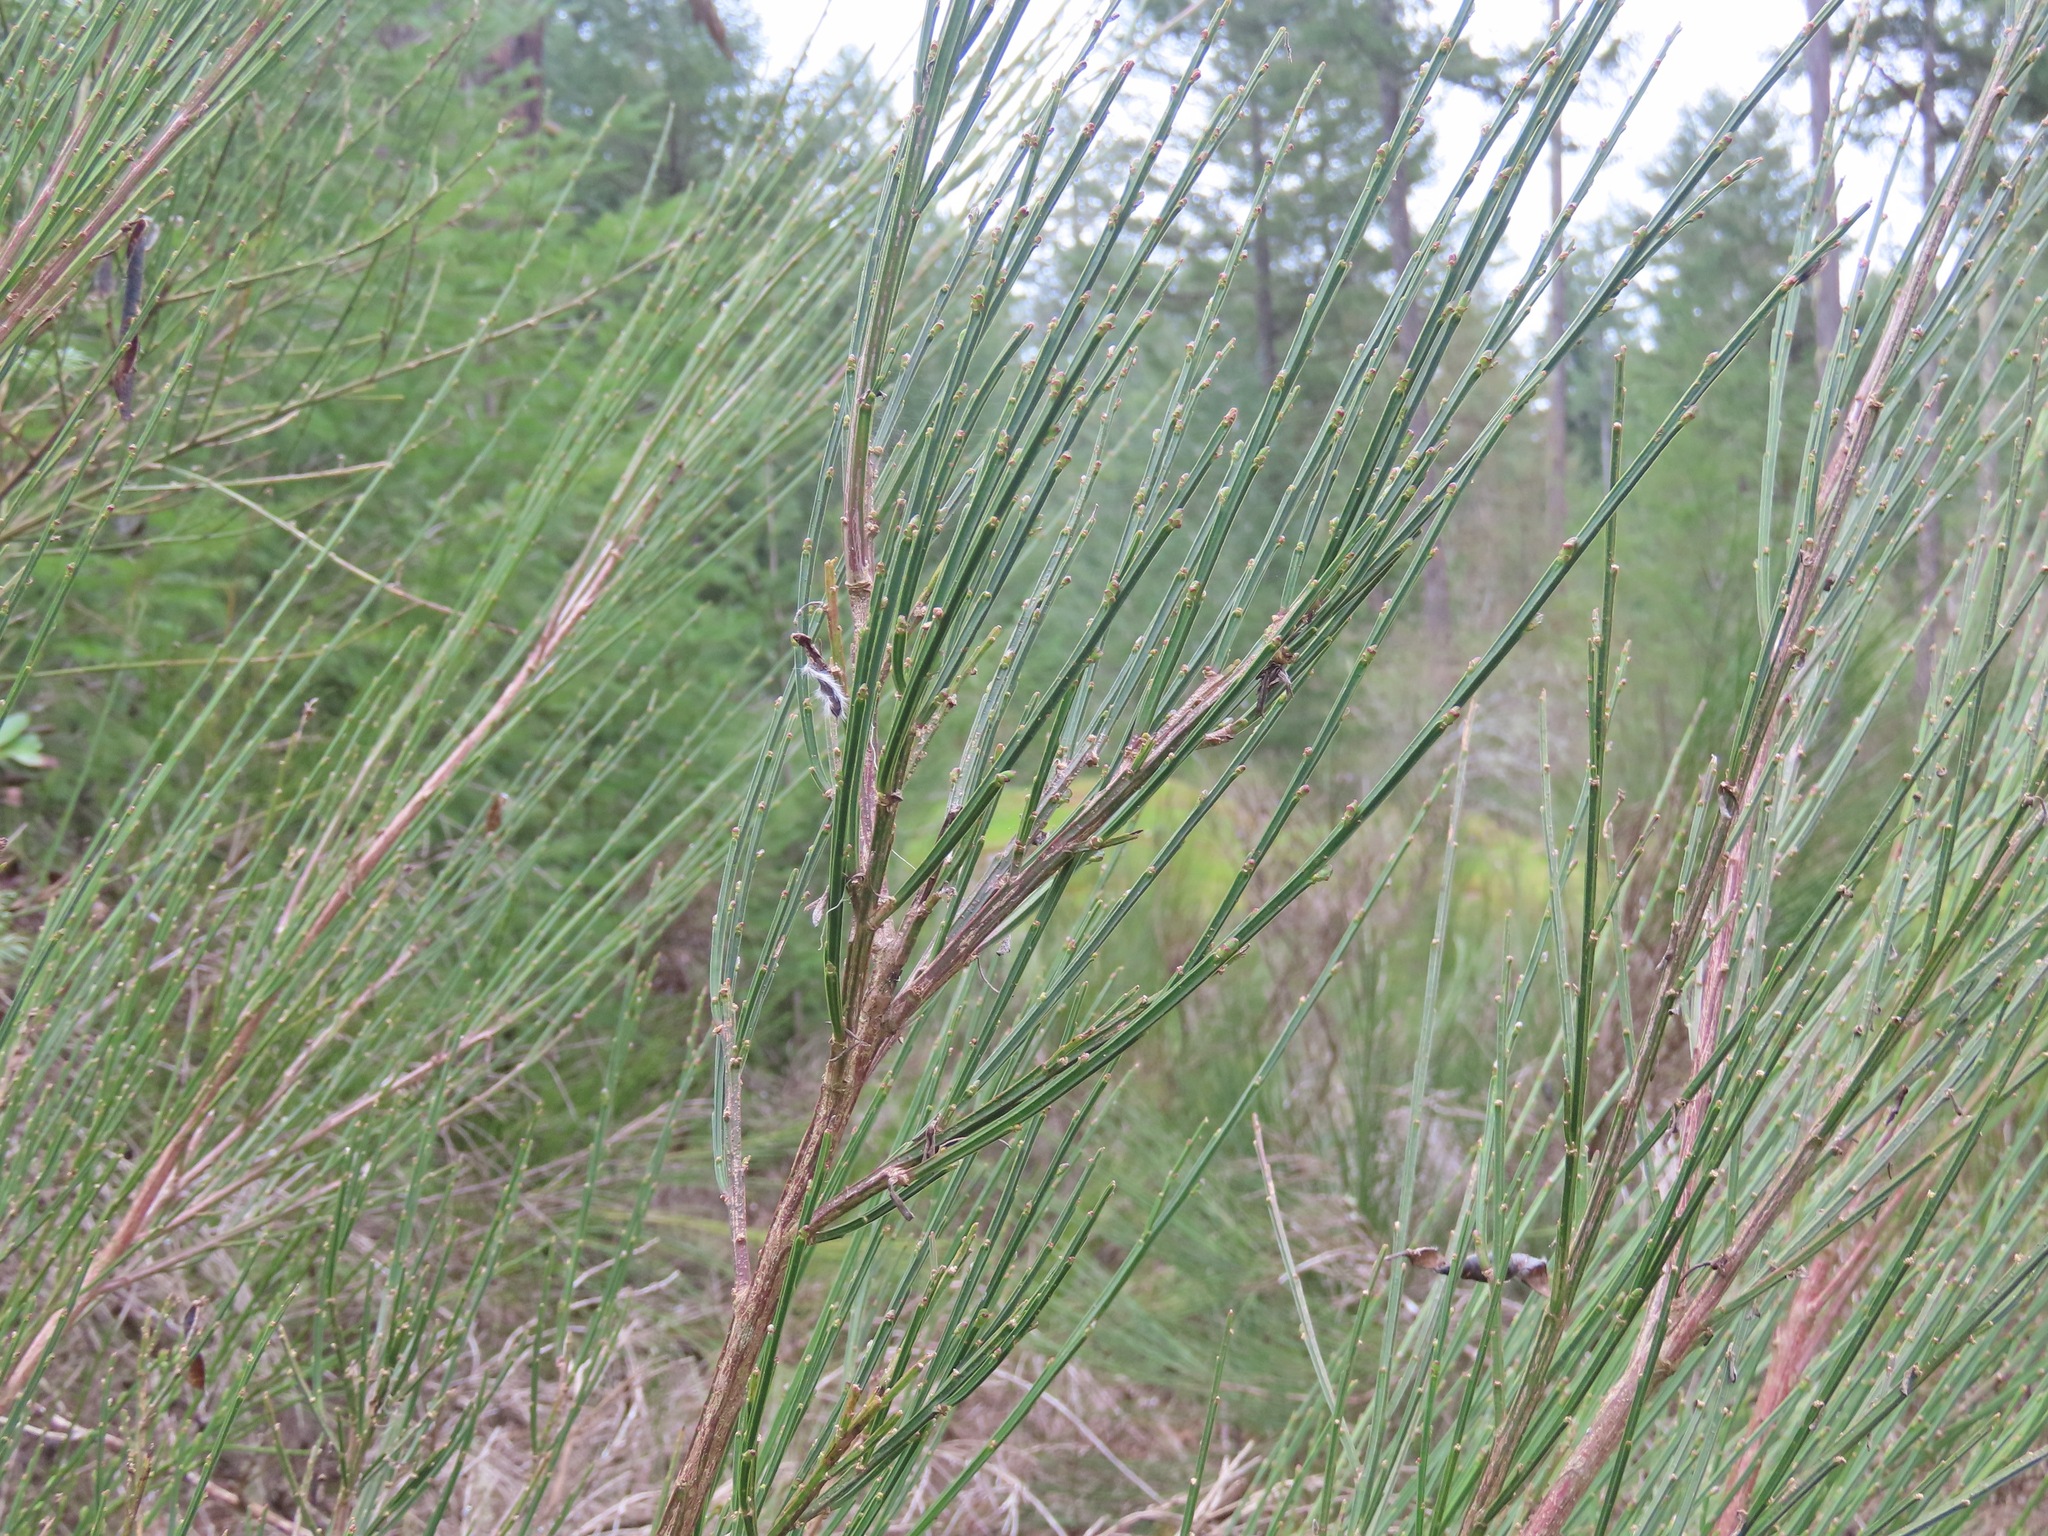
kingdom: Plantae
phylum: Tracheophyta
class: Magnoliopsida
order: Fabales
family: Fabaceae
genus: Cytisus
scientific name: Cytisus scoparius
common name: Scotch broom
